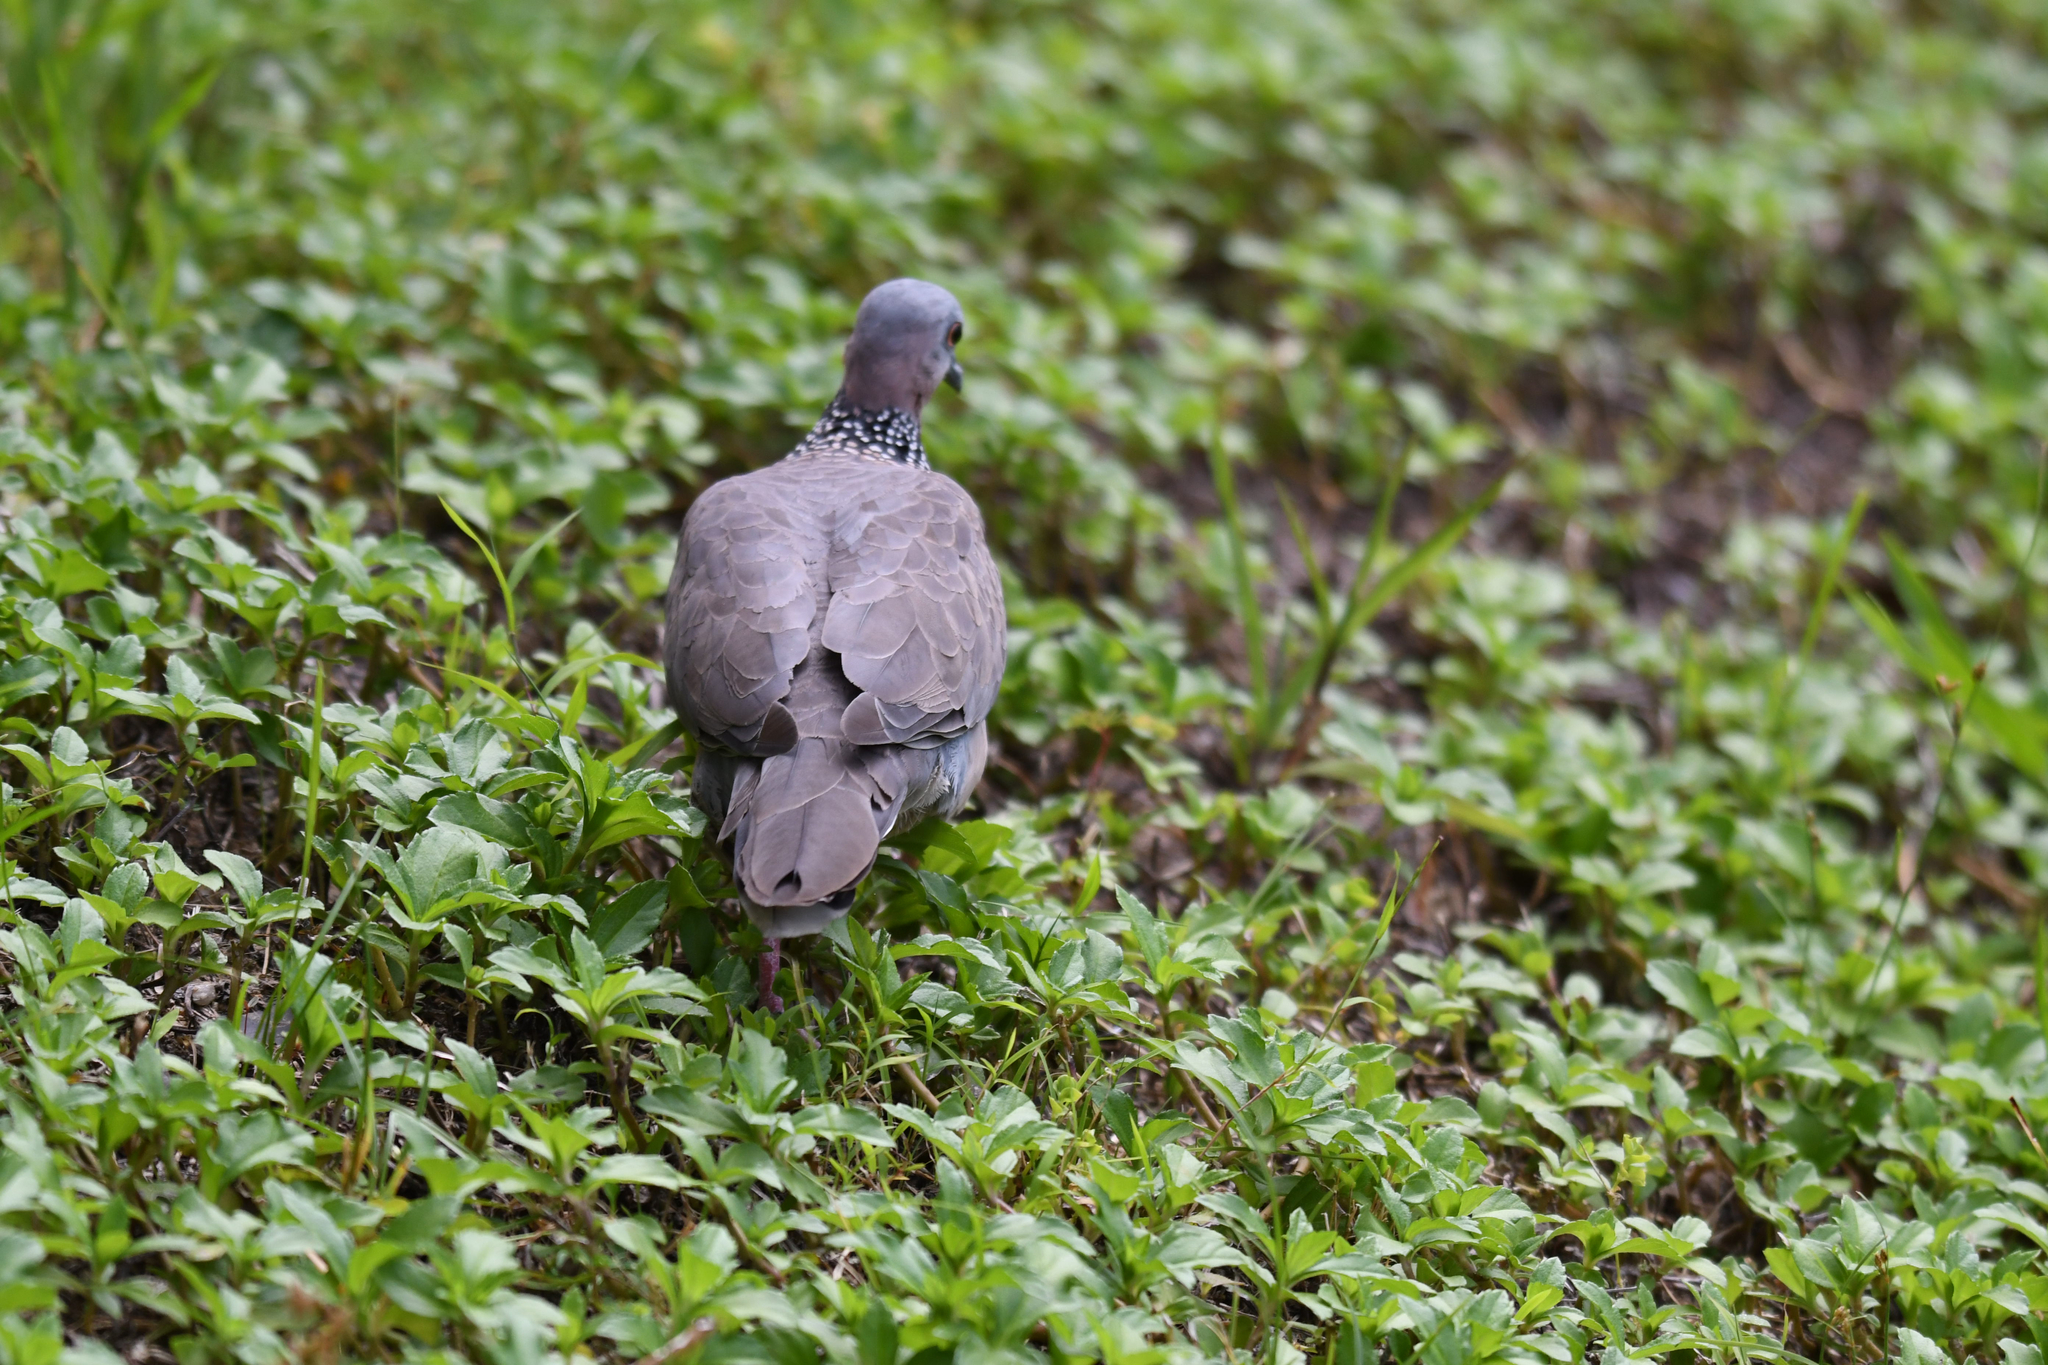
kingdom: Animalia
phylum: Chordata
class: Aves
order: Columbiformes
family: Columbidae
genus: Spilopelia
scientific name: Spilopelia chinensis
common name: Spotted dove
